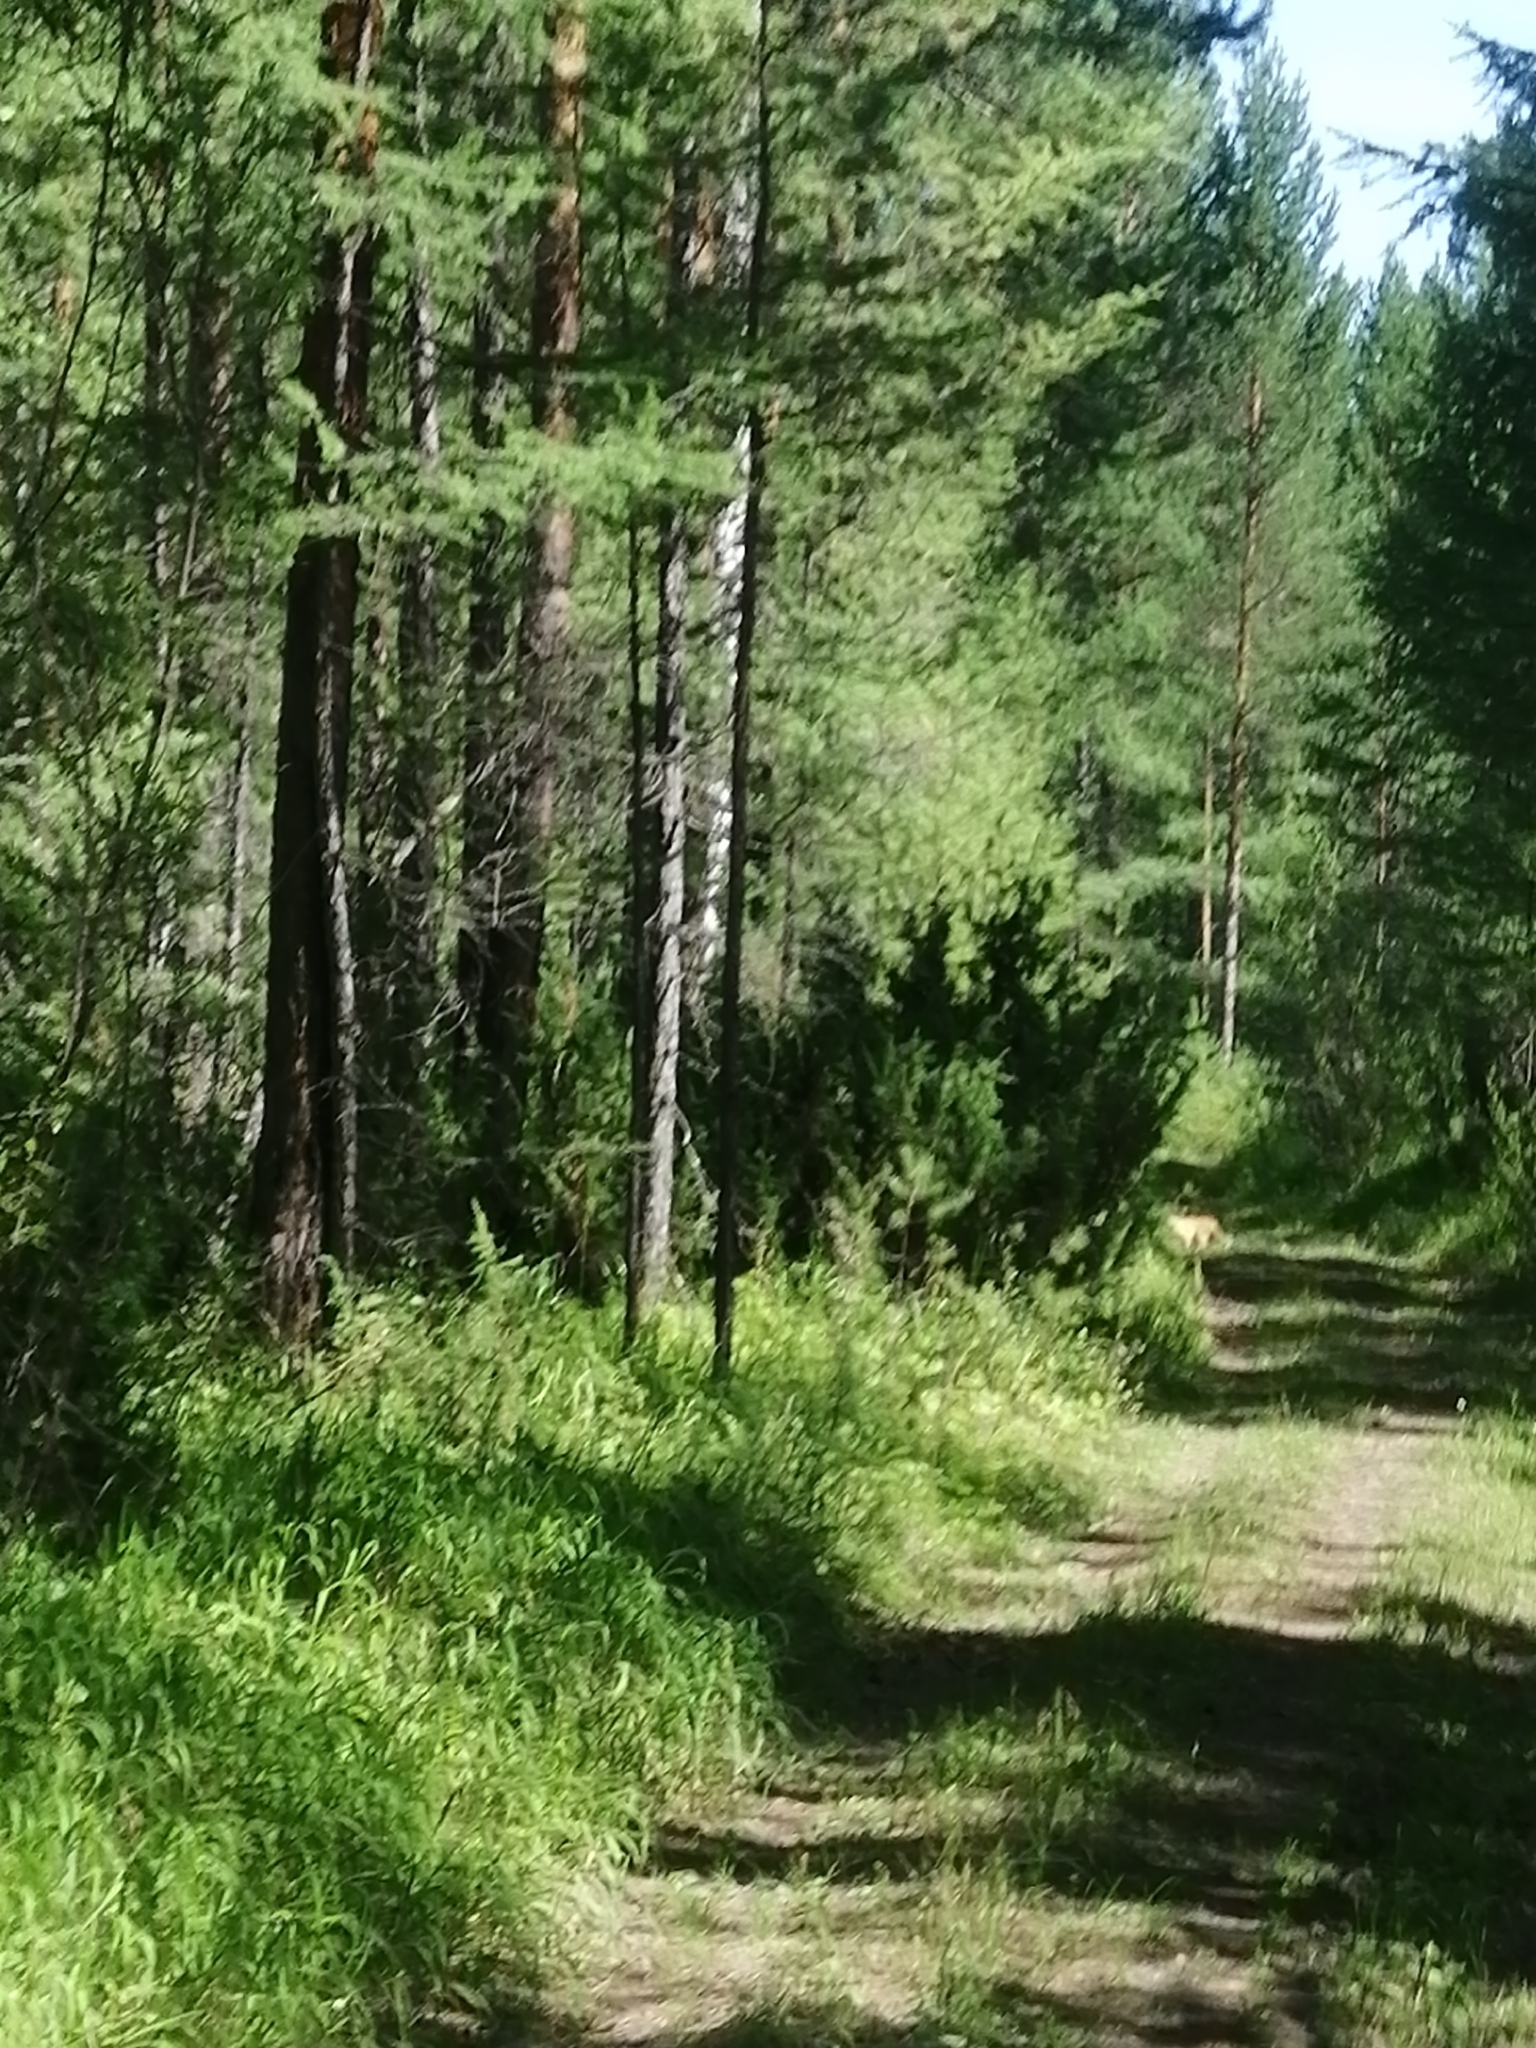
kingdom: Animalia
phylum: Chordata
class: Mammalia
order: Carnivora
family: Canidae
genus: Vulpes
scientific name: Vulpes vulpes
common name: Red fox
